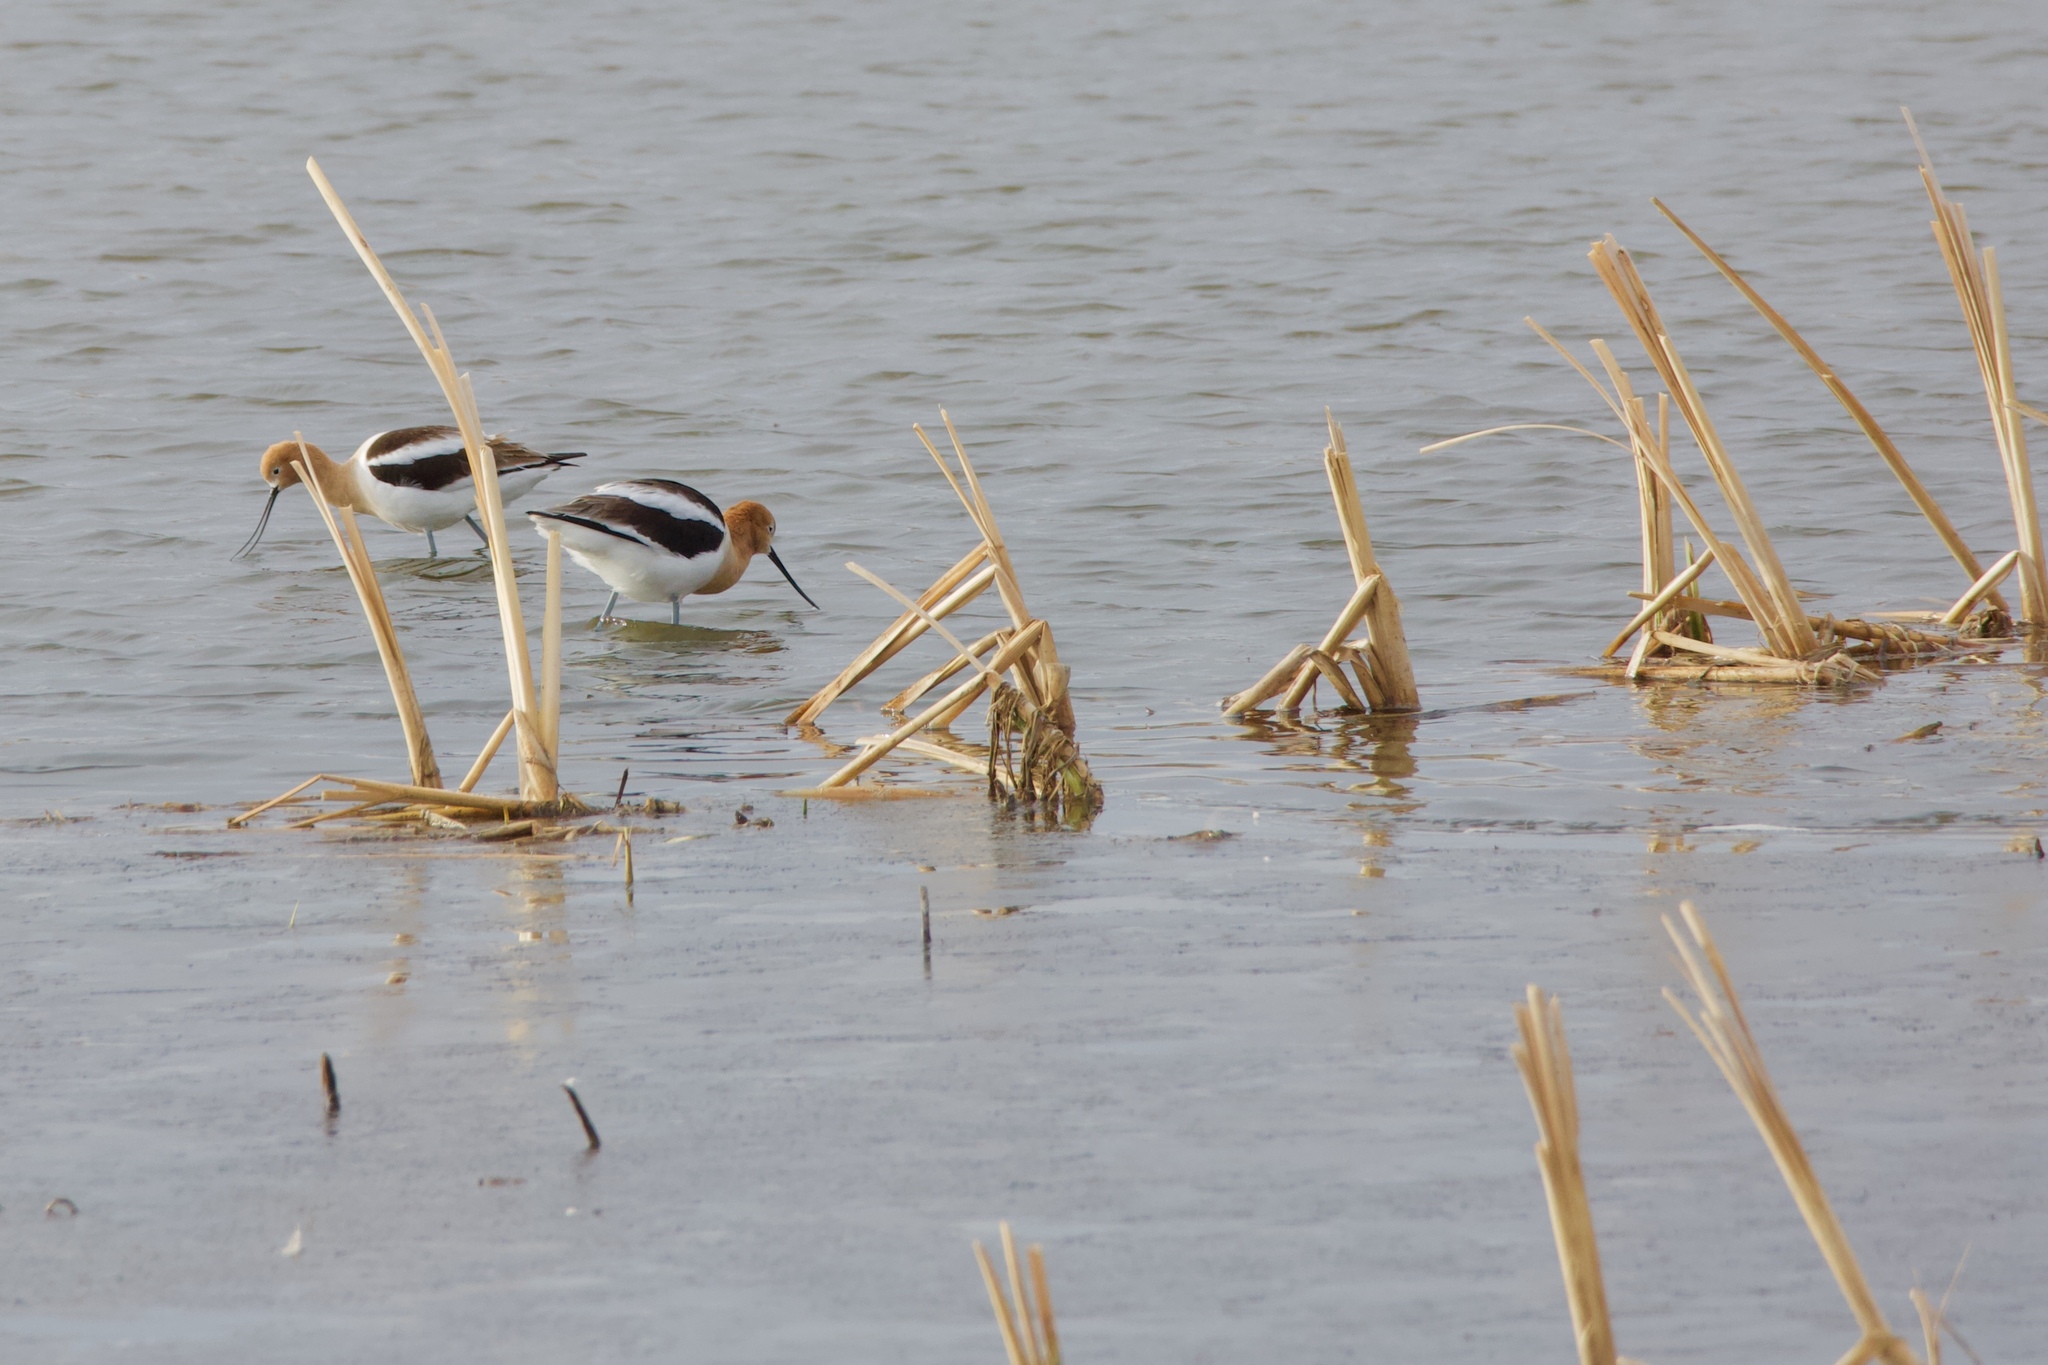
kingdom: Animalia
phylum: Chordata
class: Aves
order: Charadriiformes
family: Recurvirostridae
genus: Recurvirostra
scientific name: Recurvirostra americana
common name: American avocet
